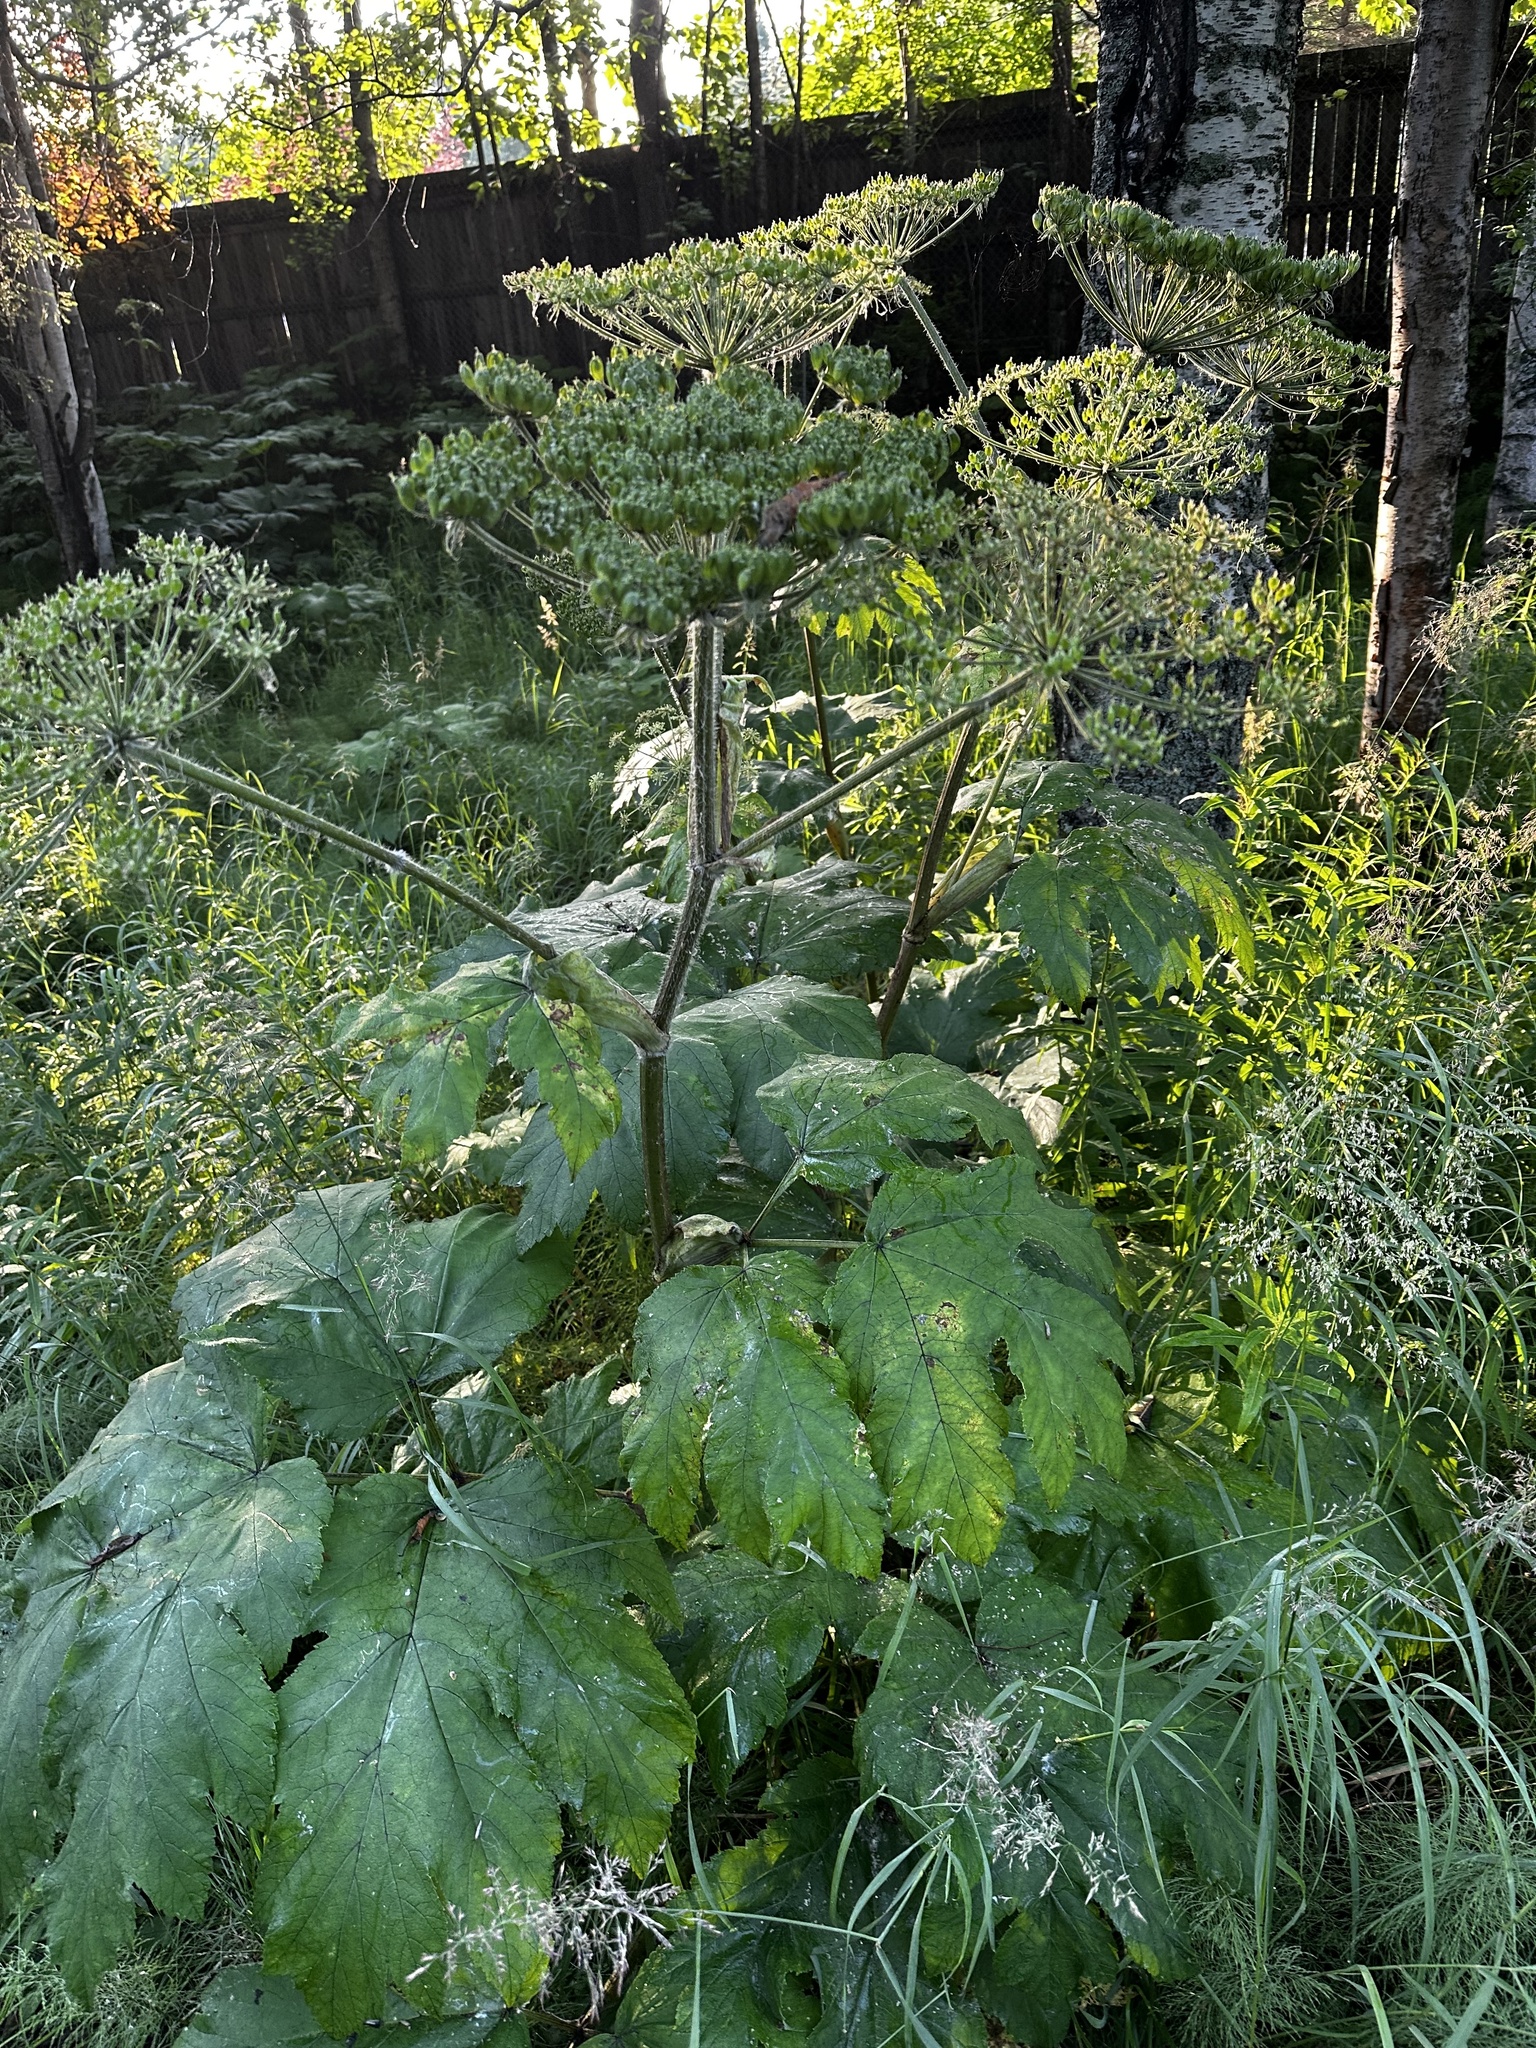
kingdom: Plantae
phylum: Tracheophyta
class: Magnoliopsida
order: Apiales
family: Apiaceae
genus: Heracleum
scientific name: Heracleum maximum
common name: American cow parsnip
